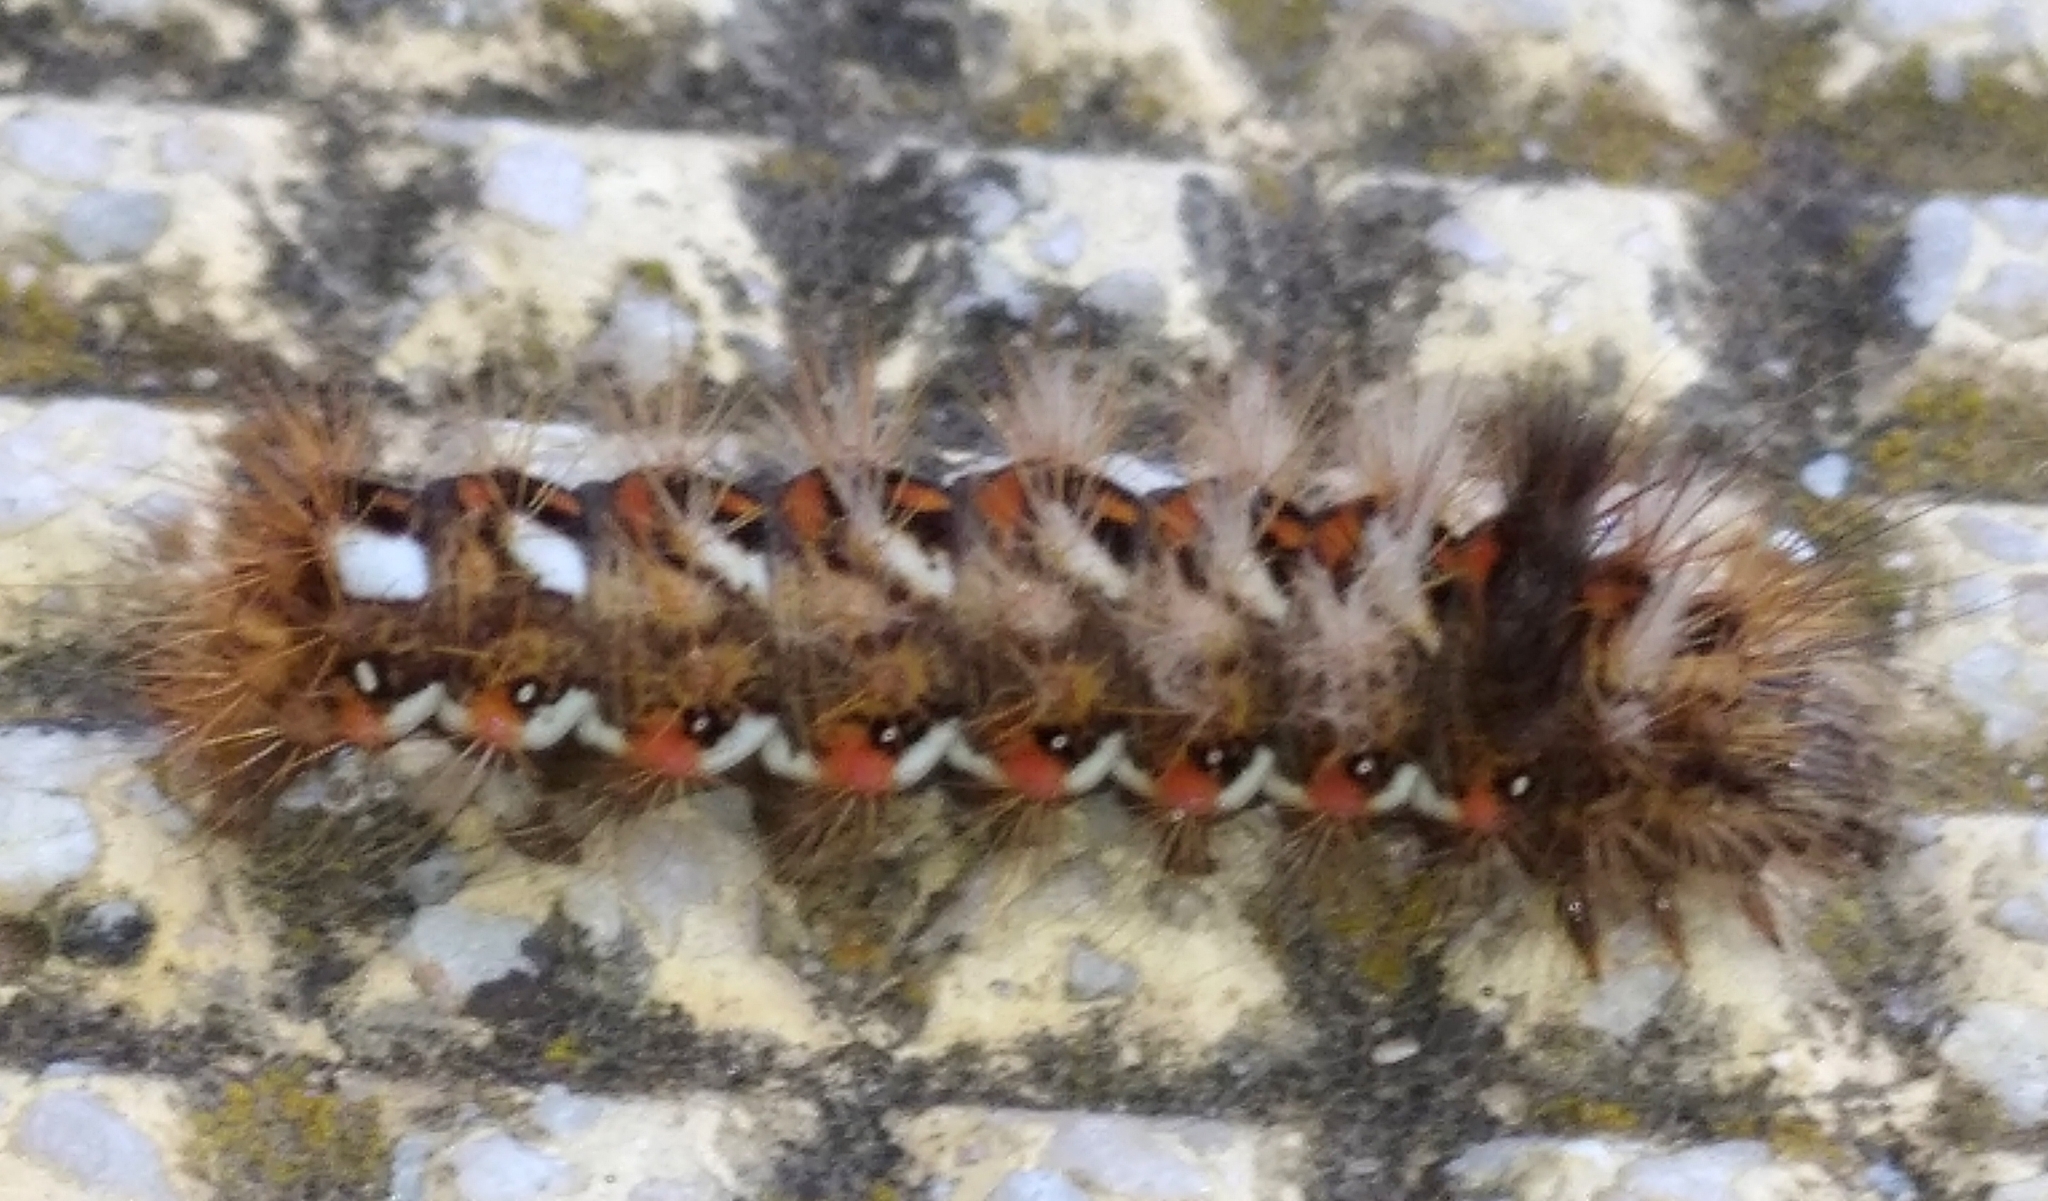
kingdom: Animalia
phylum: Arthropoda
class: Insecta
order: Lepidoptera
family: Noctuidae
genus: Acronicta
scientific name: Acronicta rumicis
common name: Knot grass
